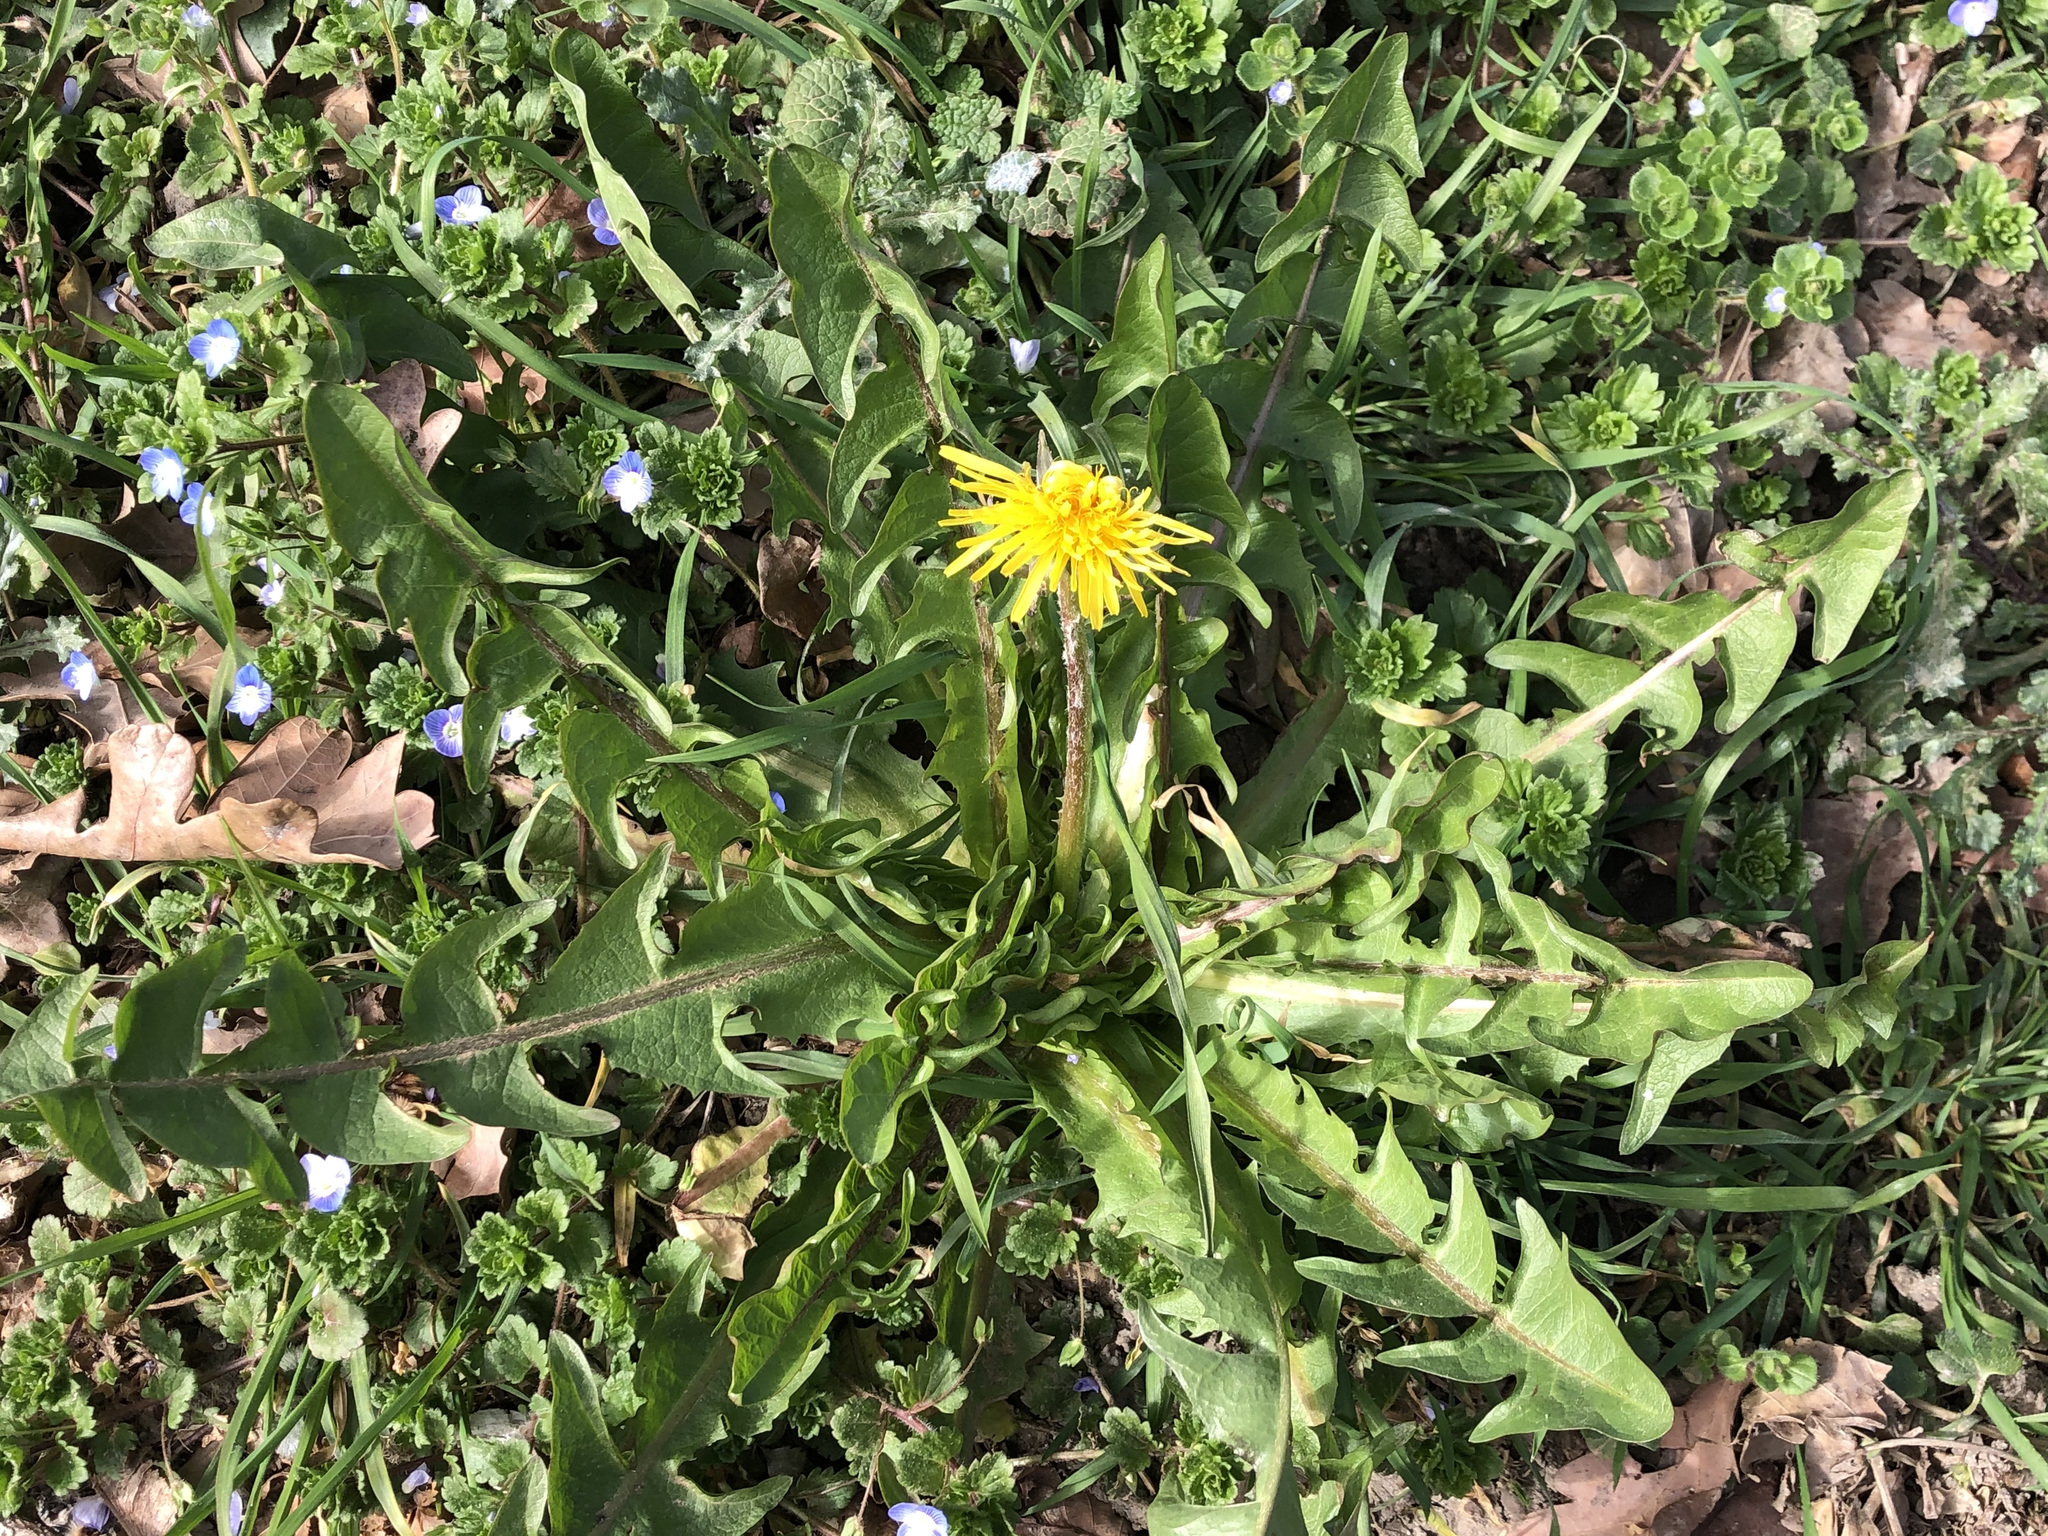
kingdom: Plantae
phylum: Tracheophyta
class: Magnoliopsida
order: Asterales
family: Asteraceae
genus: Taraxacum
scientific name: Taraxacum officinale
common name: Common dandelion
